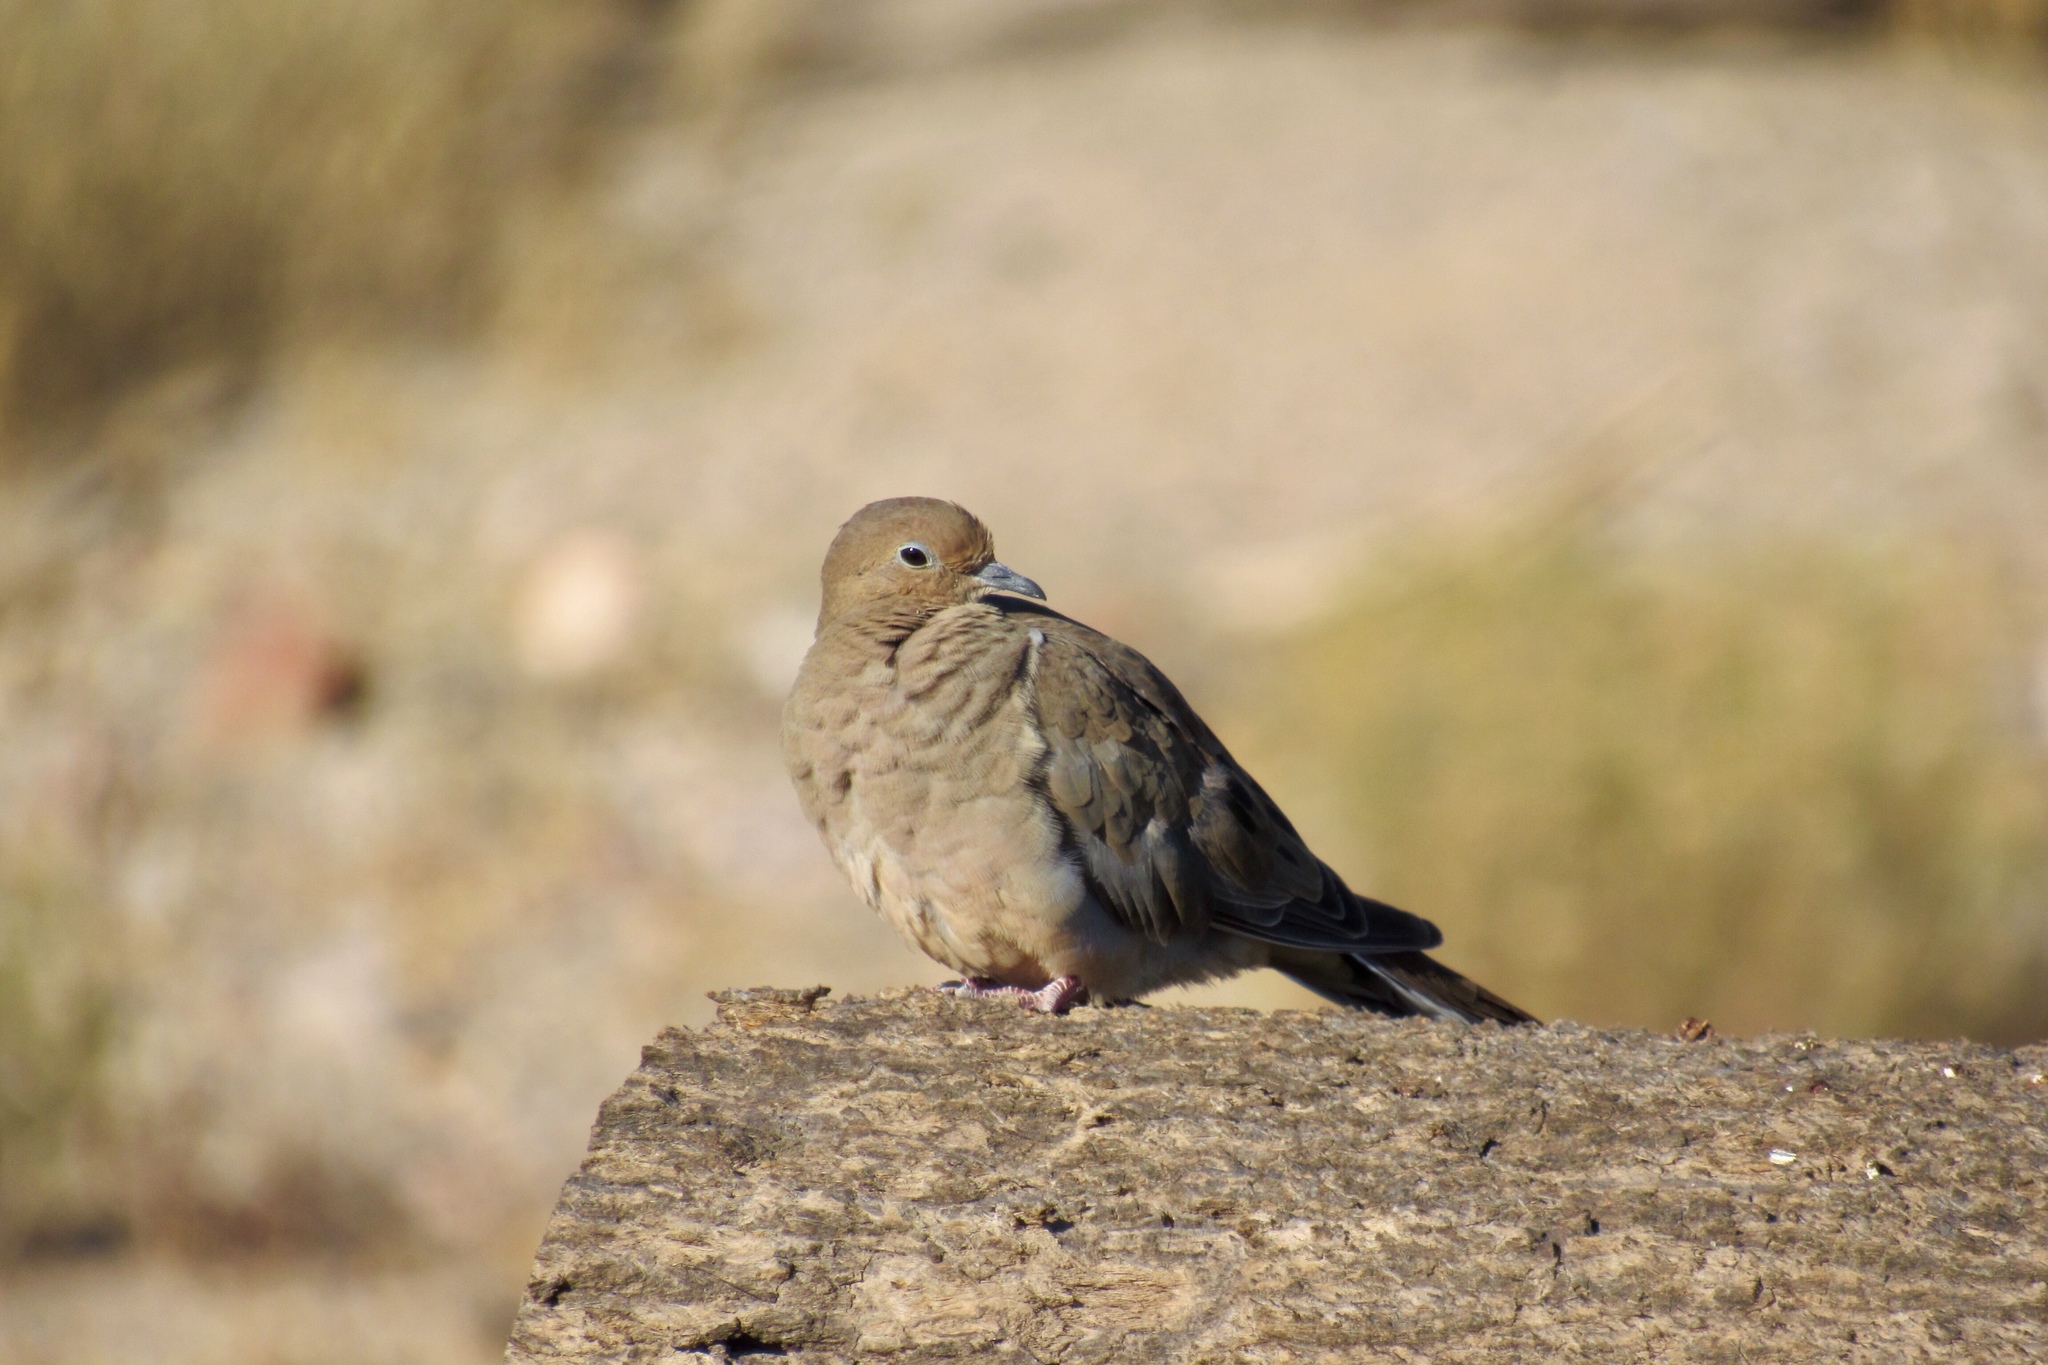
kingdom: Animalia
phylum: Chordata
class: Aves
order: Columbiformes
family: Columbidae
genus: Zenaida
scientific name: Zenaida macroura
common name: Mourning dove
